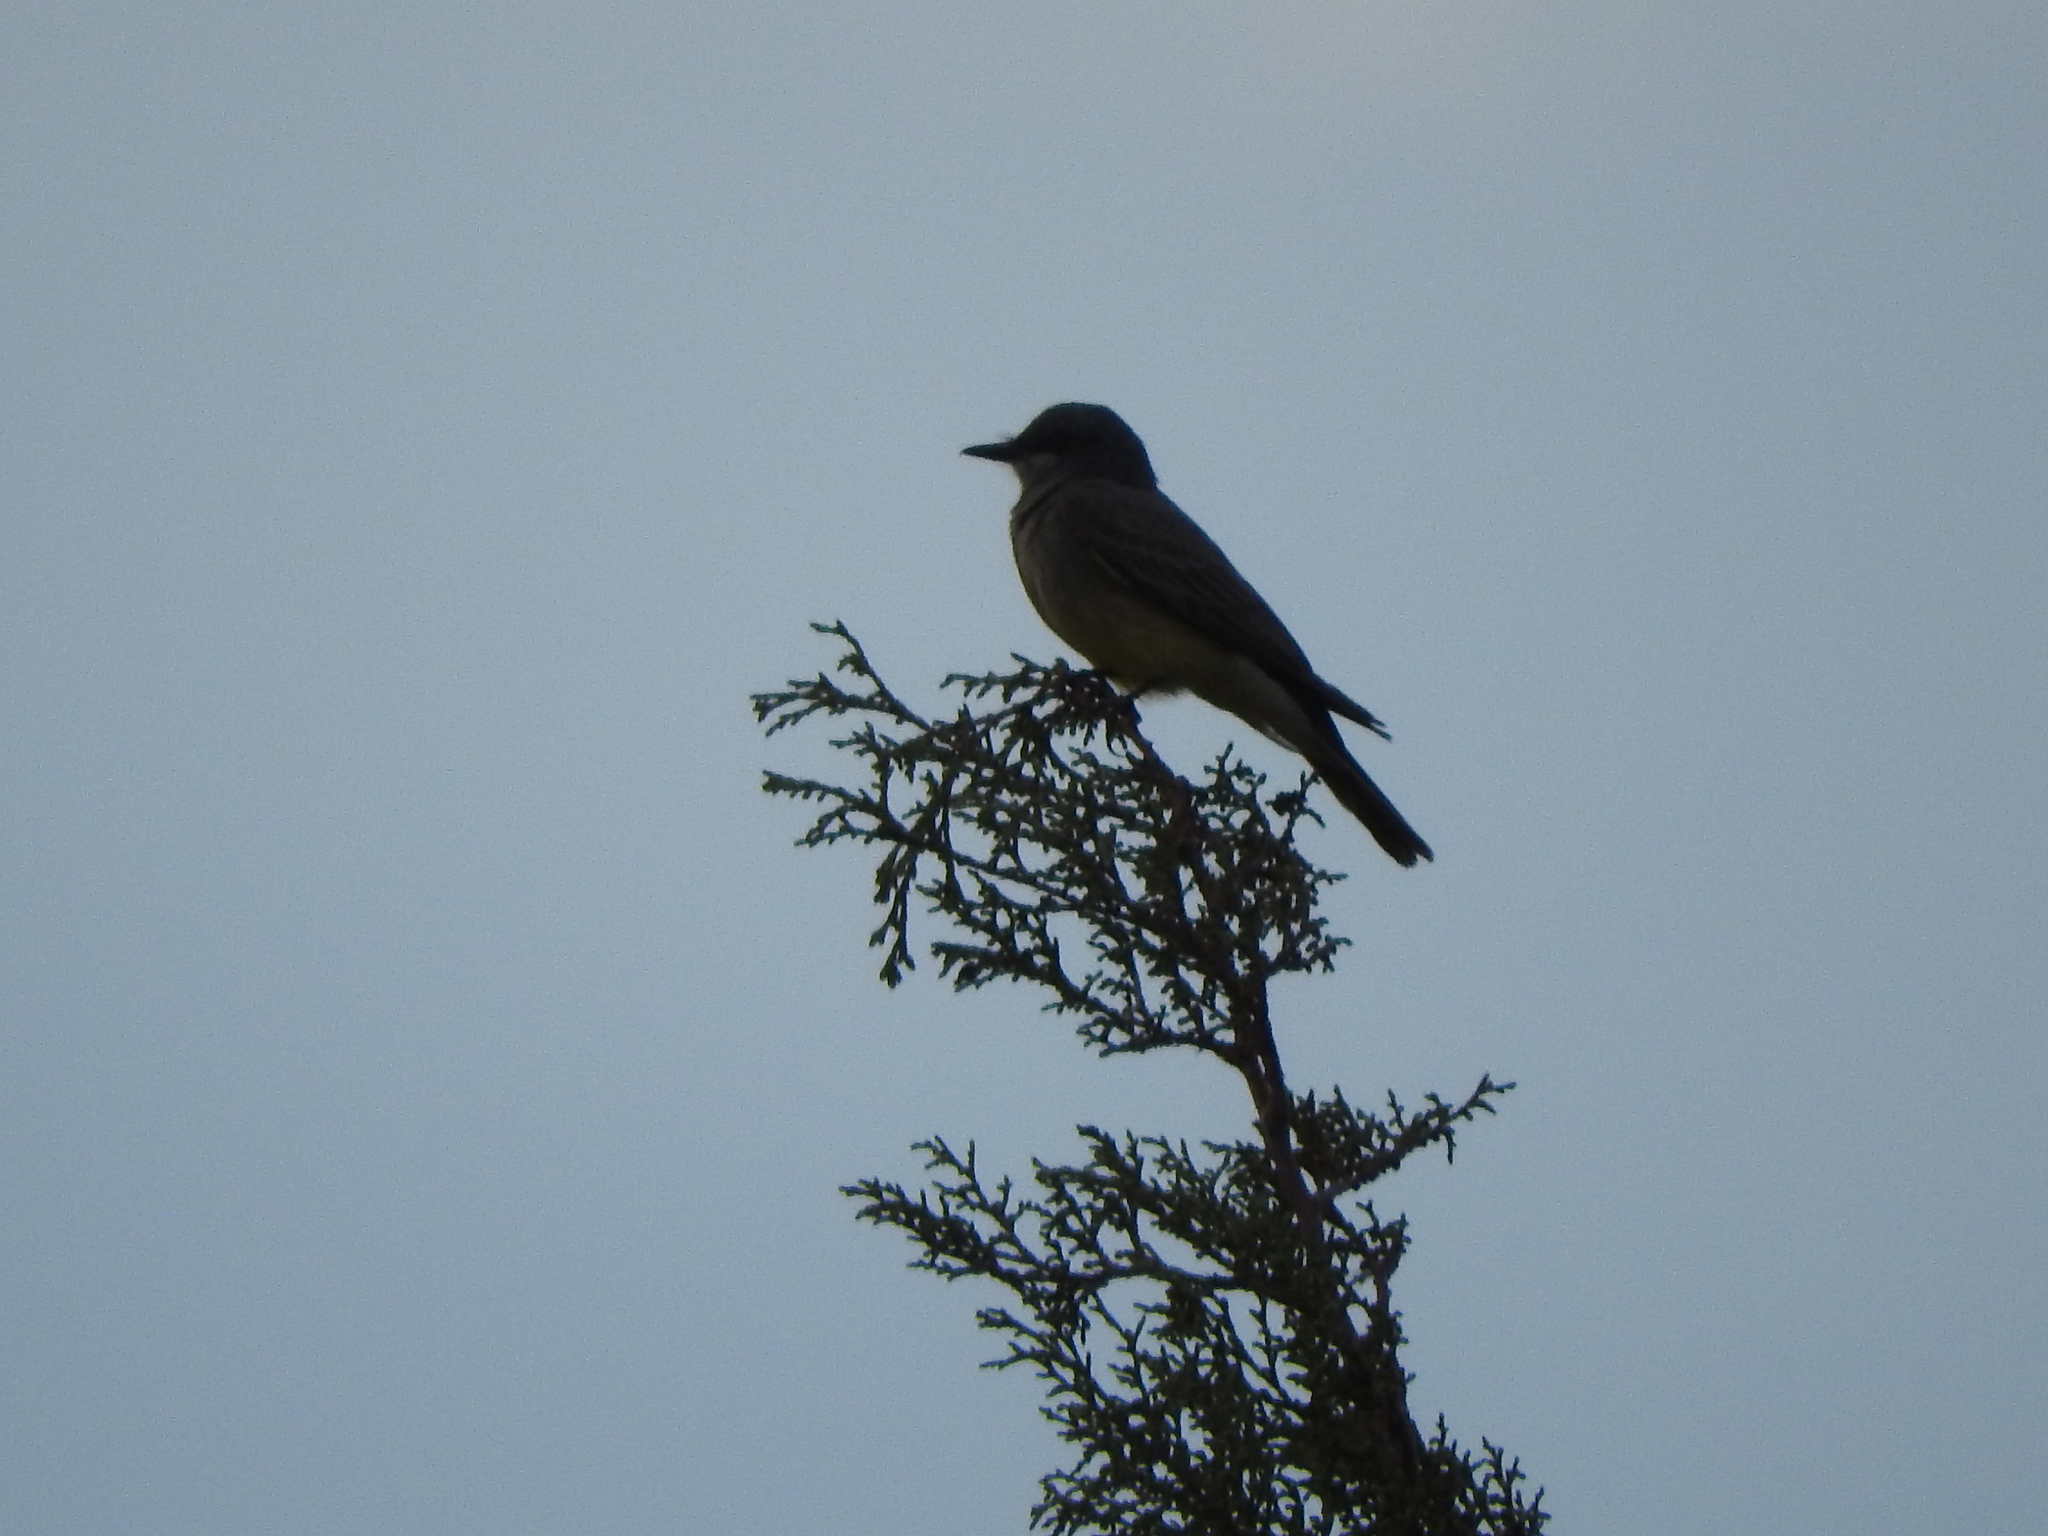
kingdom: Animalia
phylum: Chordata
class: Aves
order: Passeriformes
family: Tyrannidae
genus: Tyrannus
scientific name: Tyrannus vociferans
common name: Cassin's kingbird
